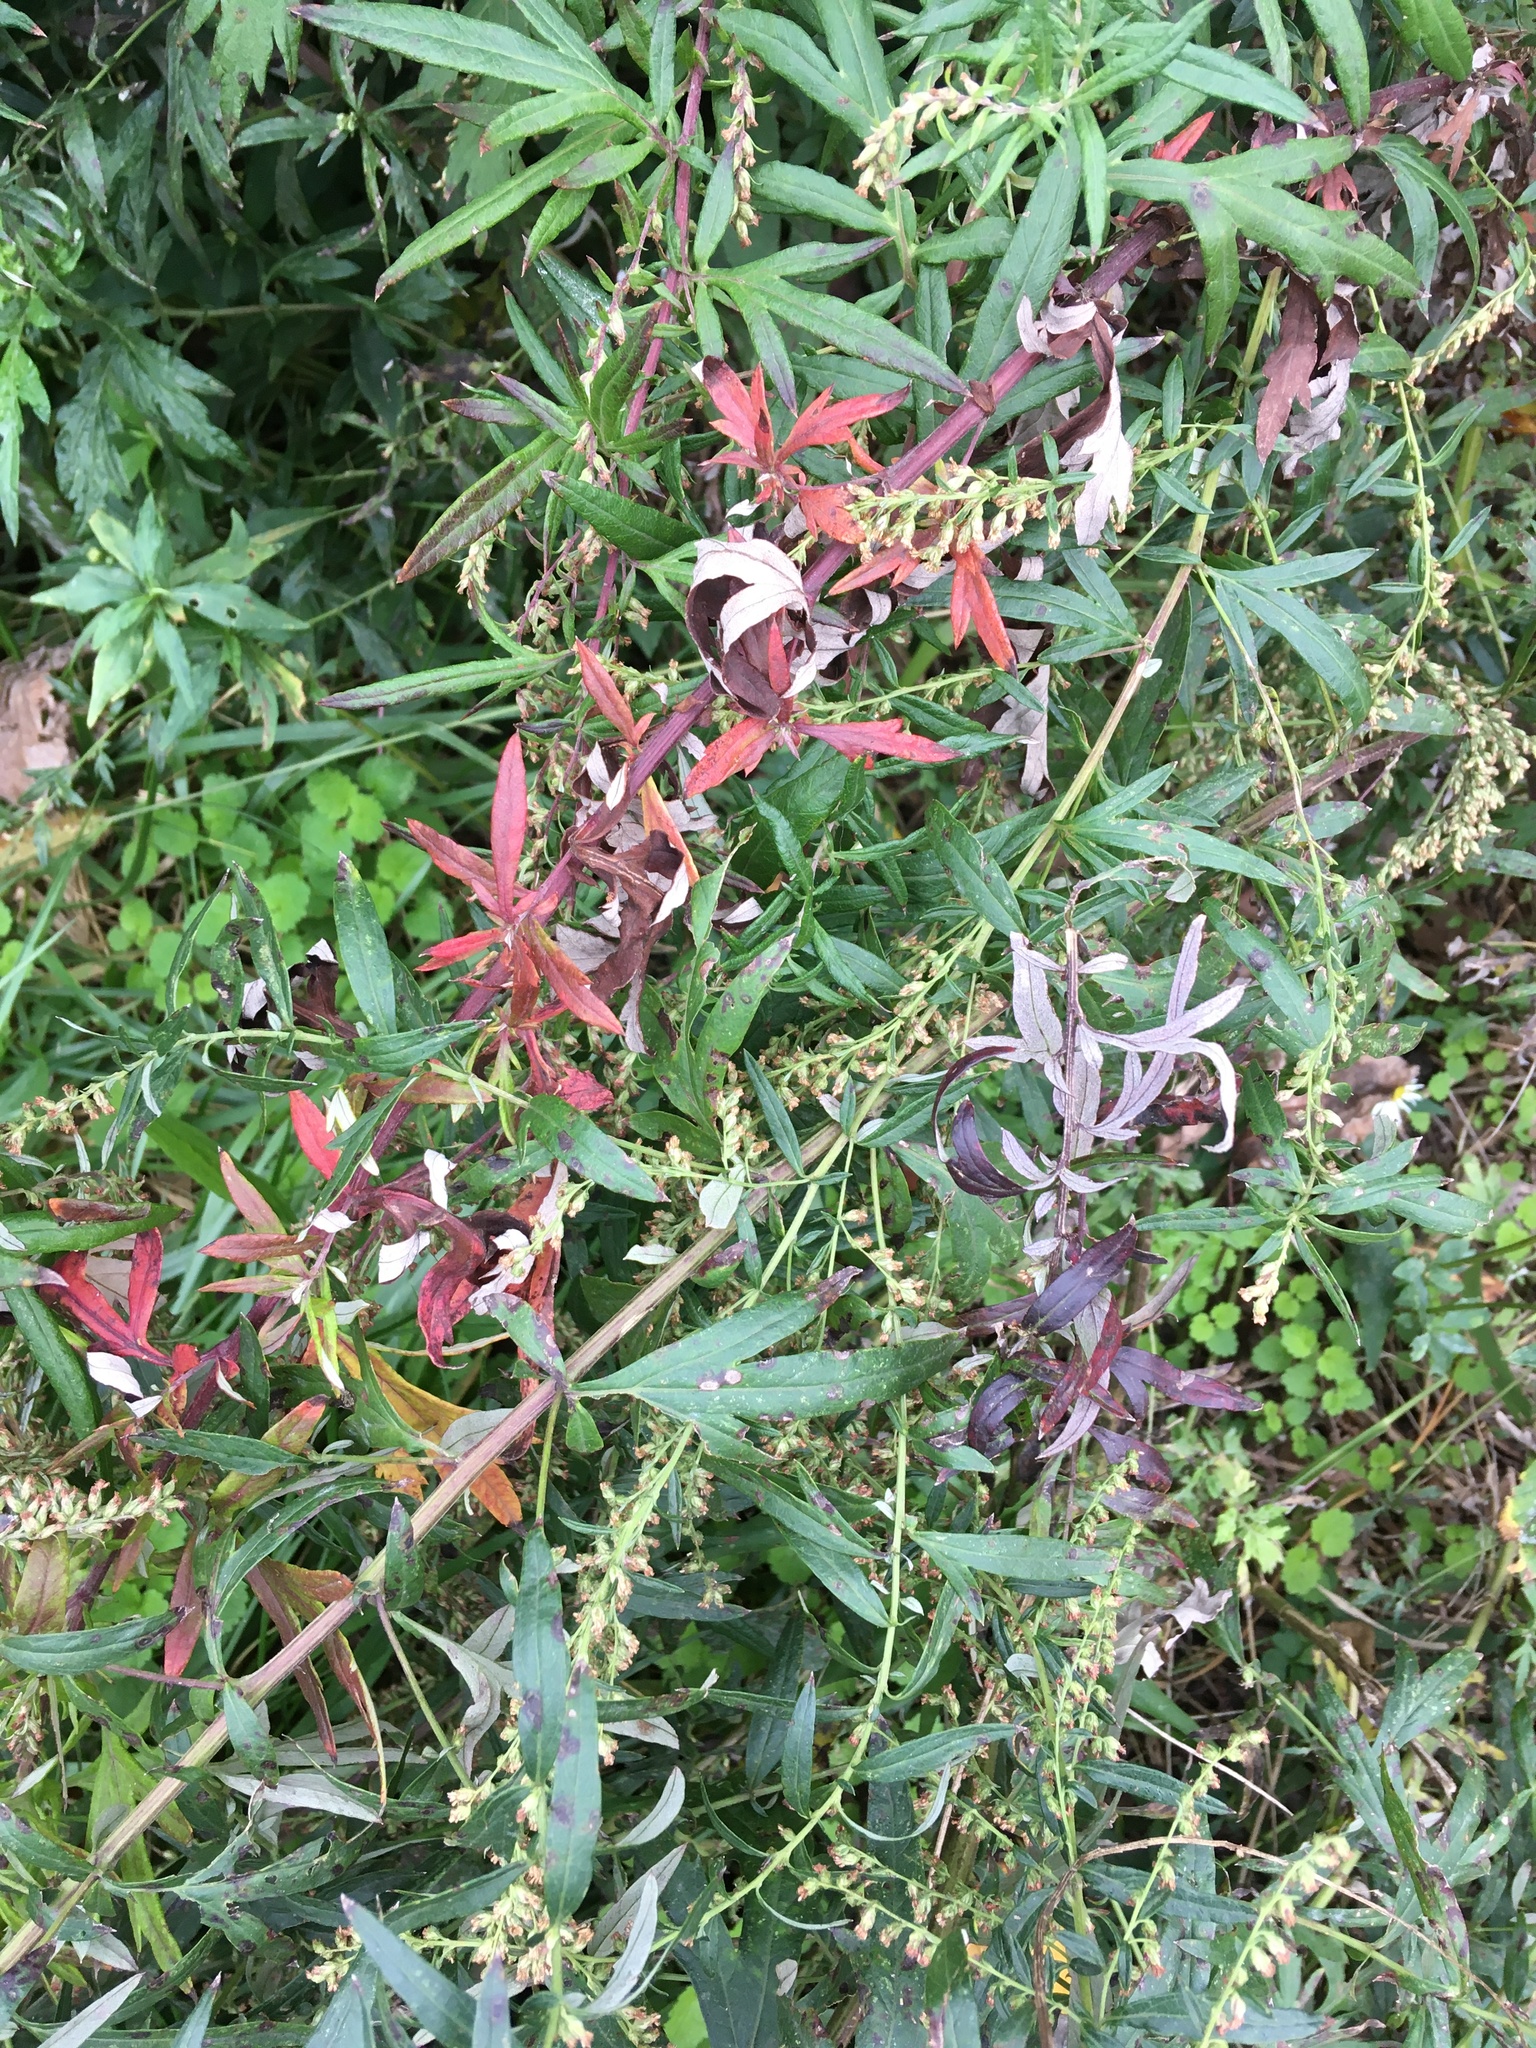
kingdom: Plantae
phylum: Tracheophyta
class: Magnoliopsida
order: Asterales
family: Asteraceae
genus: Artemisia
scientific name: Artemisia vulgaris
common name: Mugwort
